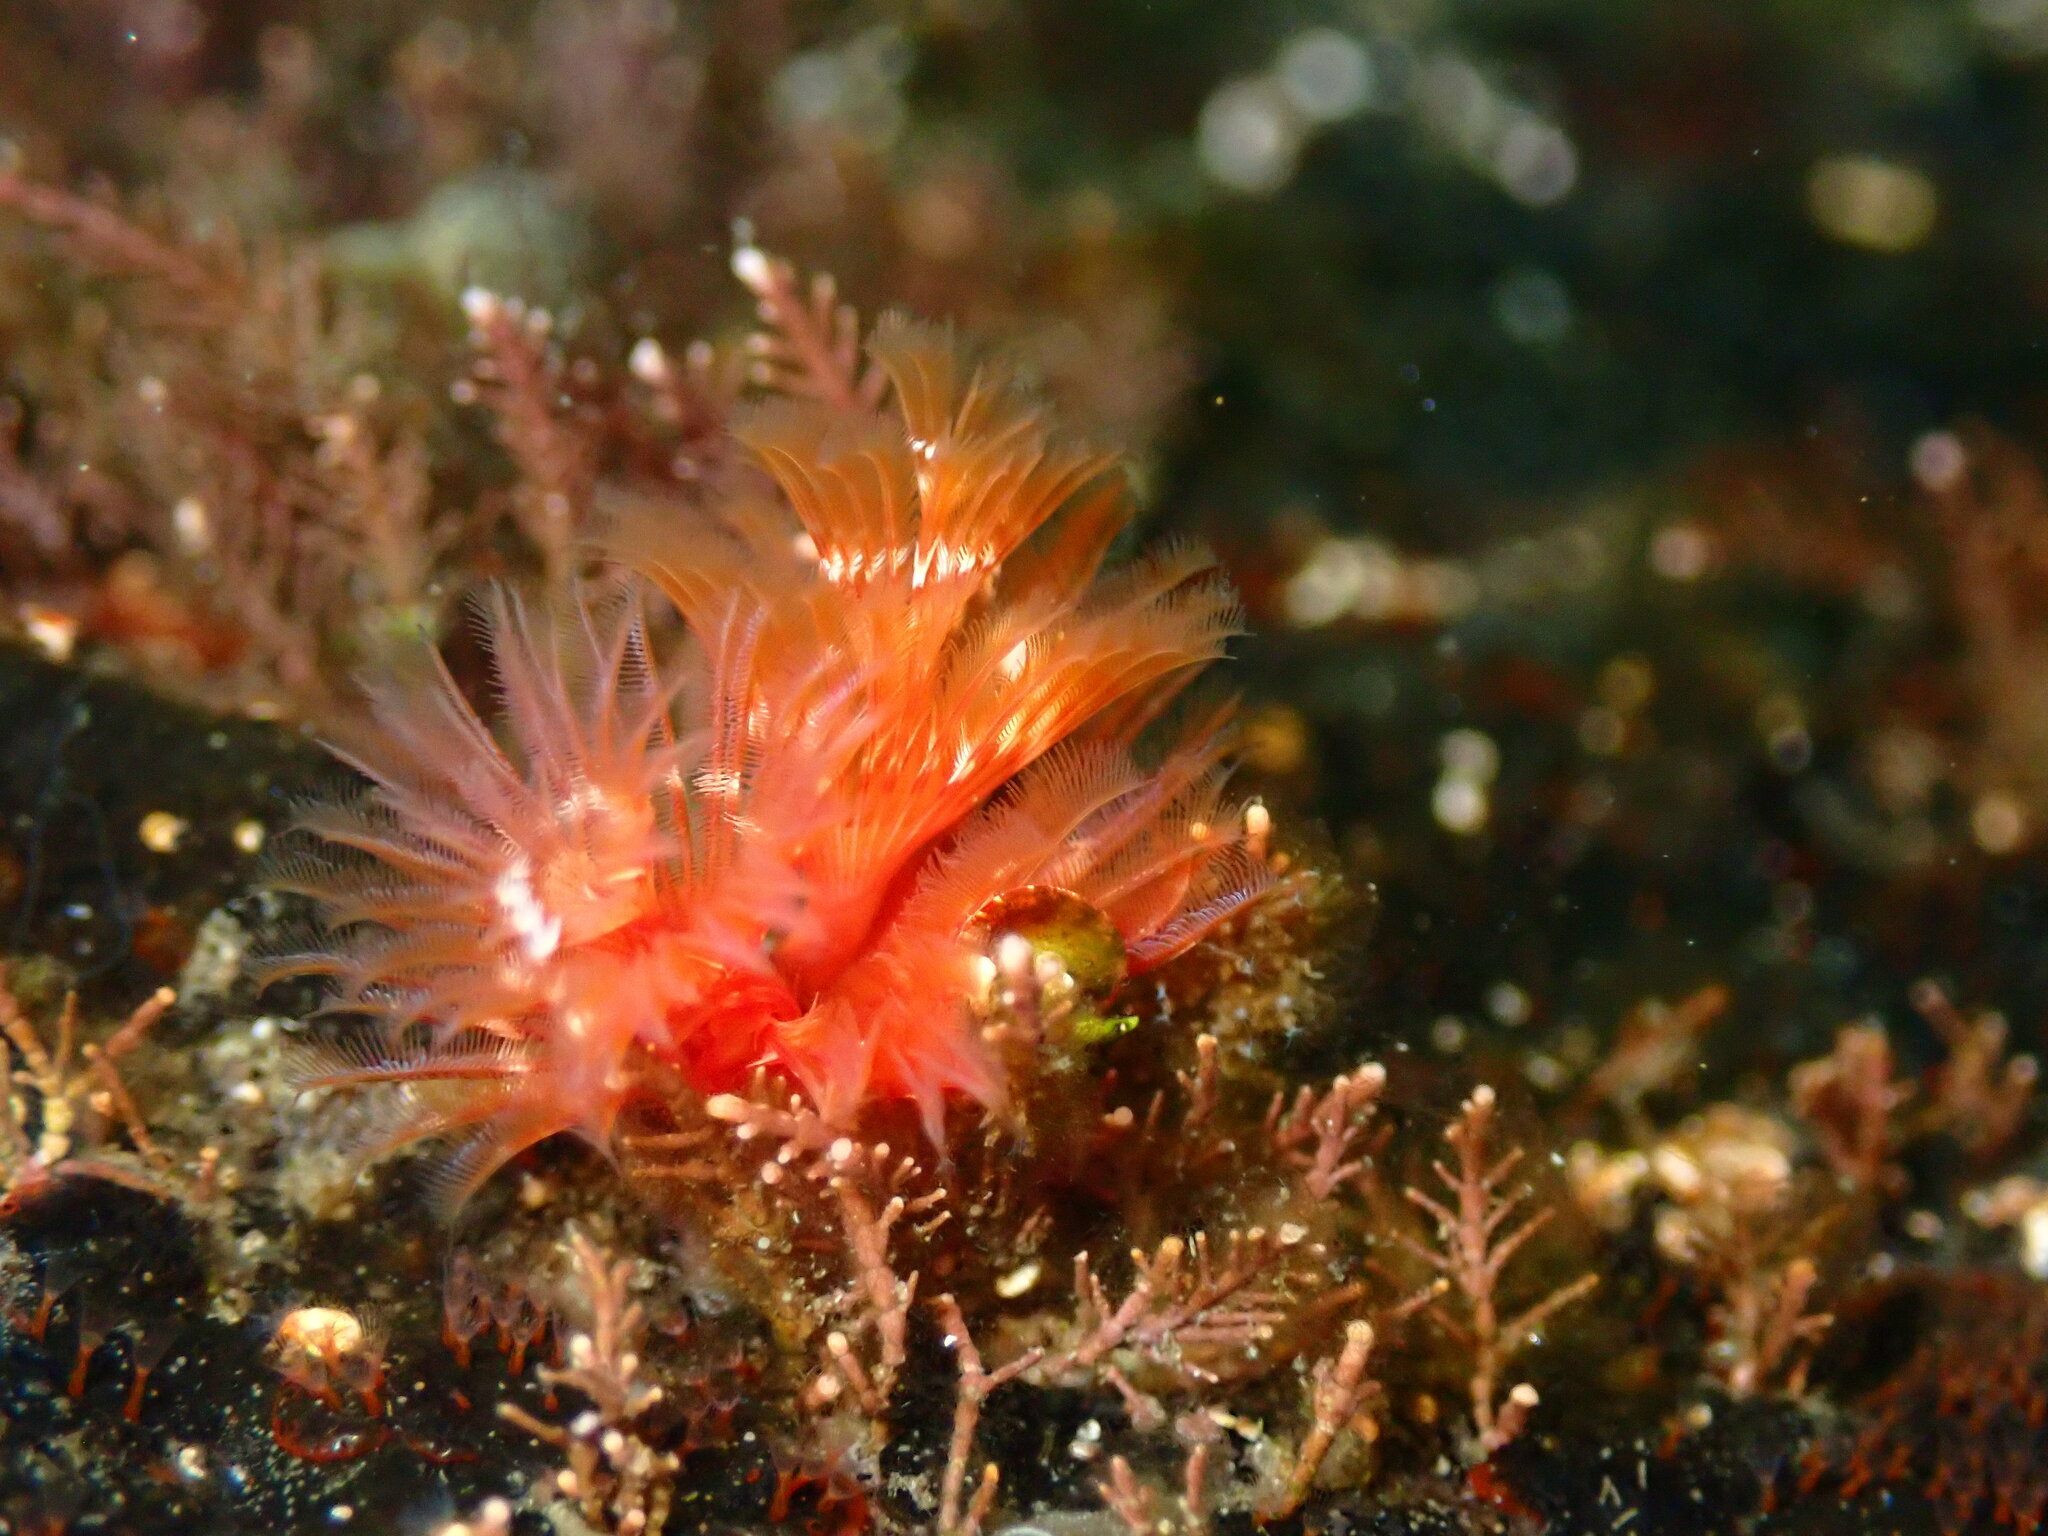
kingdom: Animalia
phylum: Annelida
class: Polychaeta
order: Sabellida
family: Serpulidae
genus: Spirobranchus
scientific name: Spirobranchus spinosus
